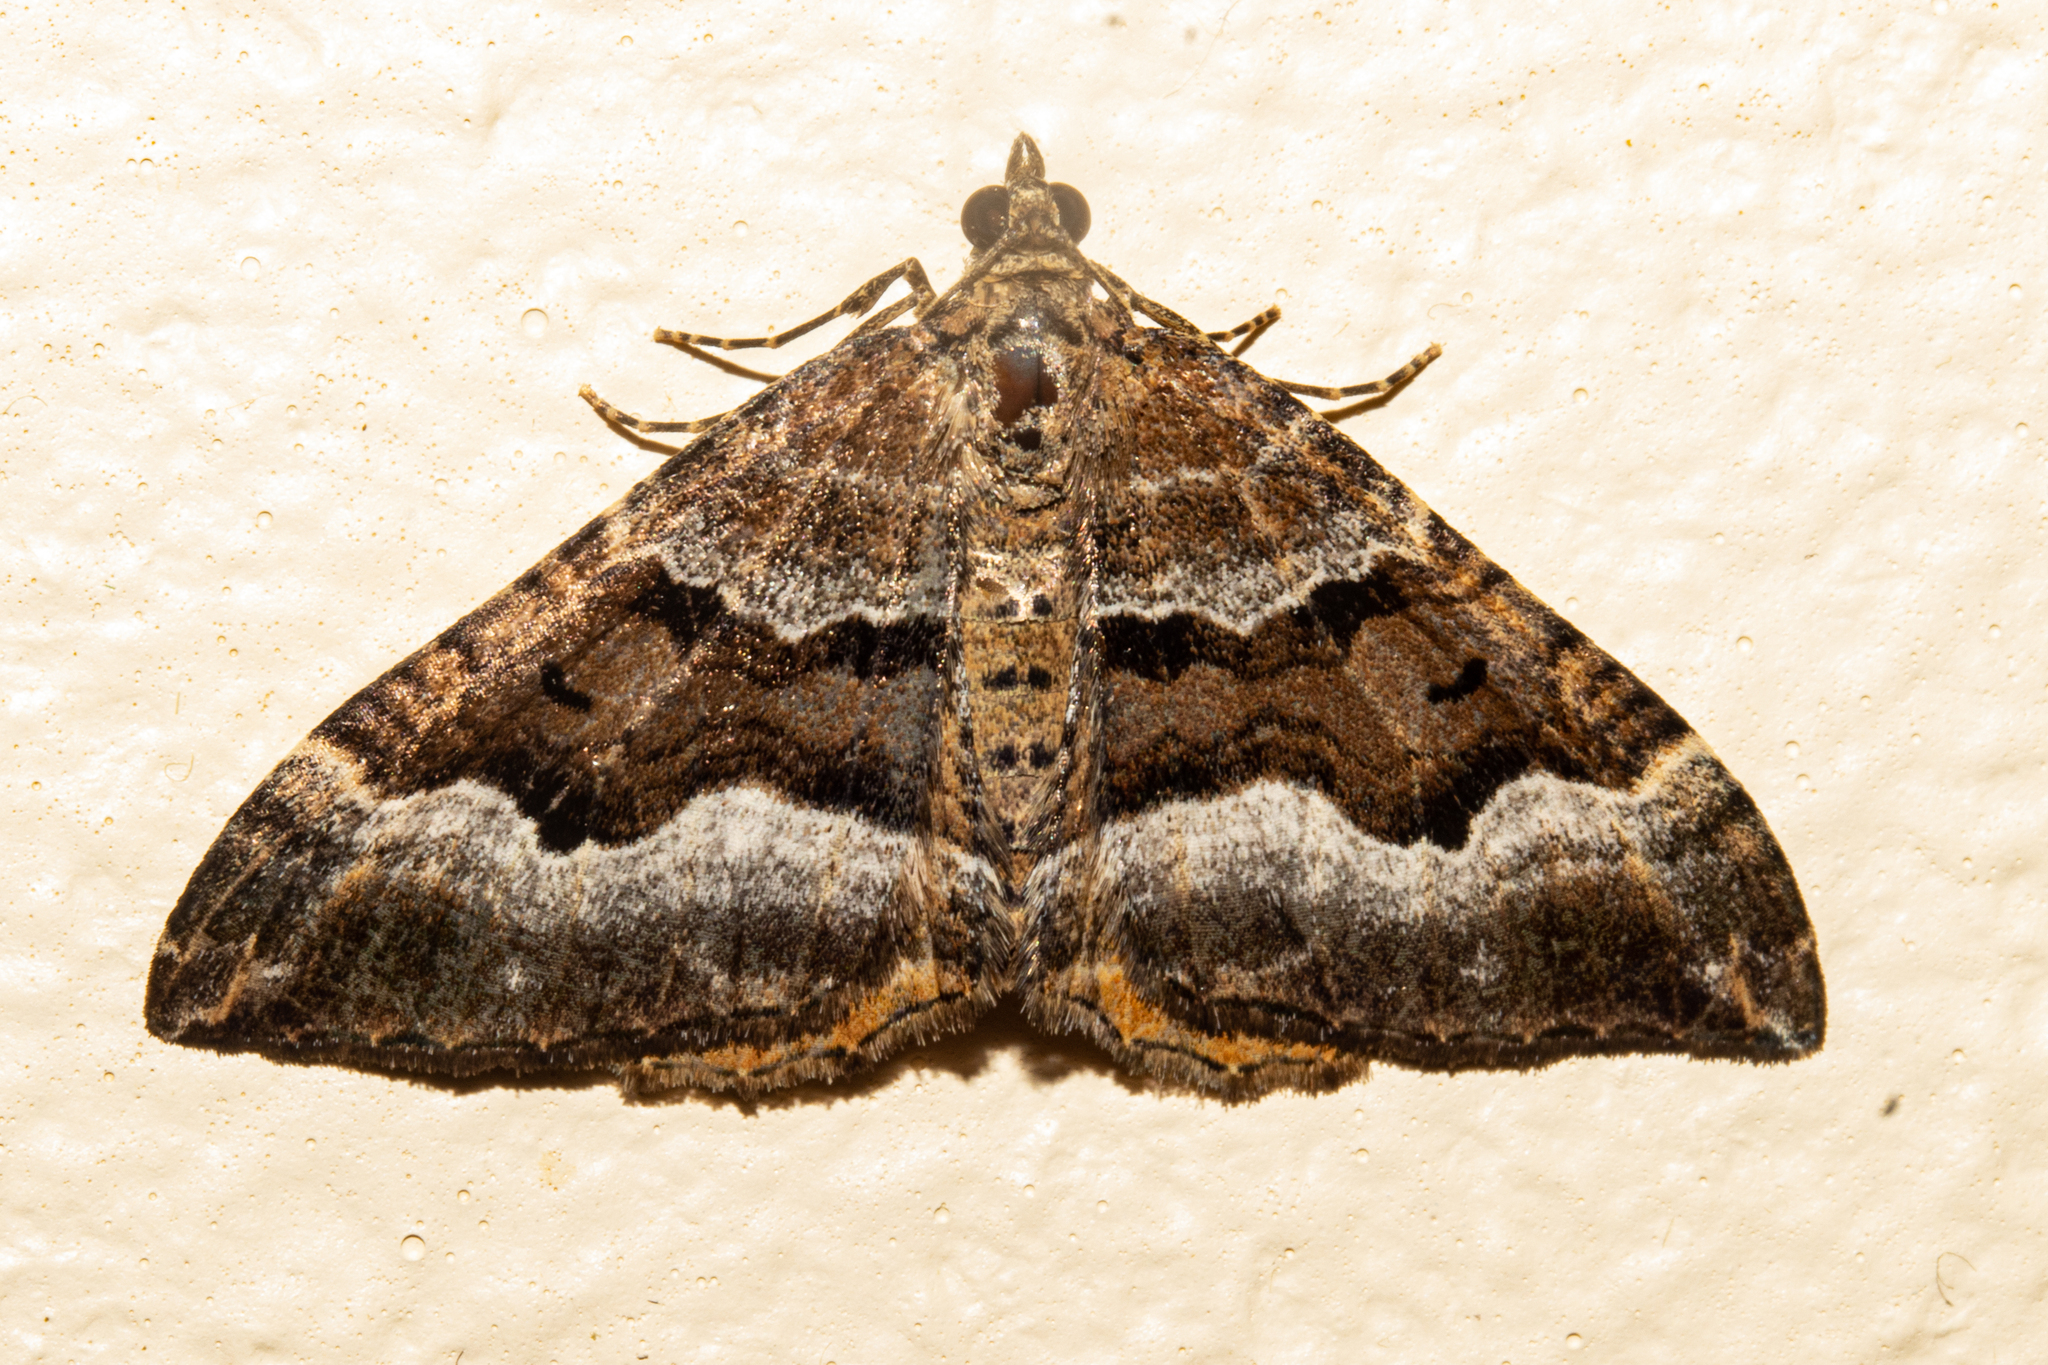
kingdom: Animalia
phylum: Arthropoda
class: Insecta
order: Lepidoptera
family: Geometridae
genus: Hydriomena
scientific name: Hydriomena deltoidata
